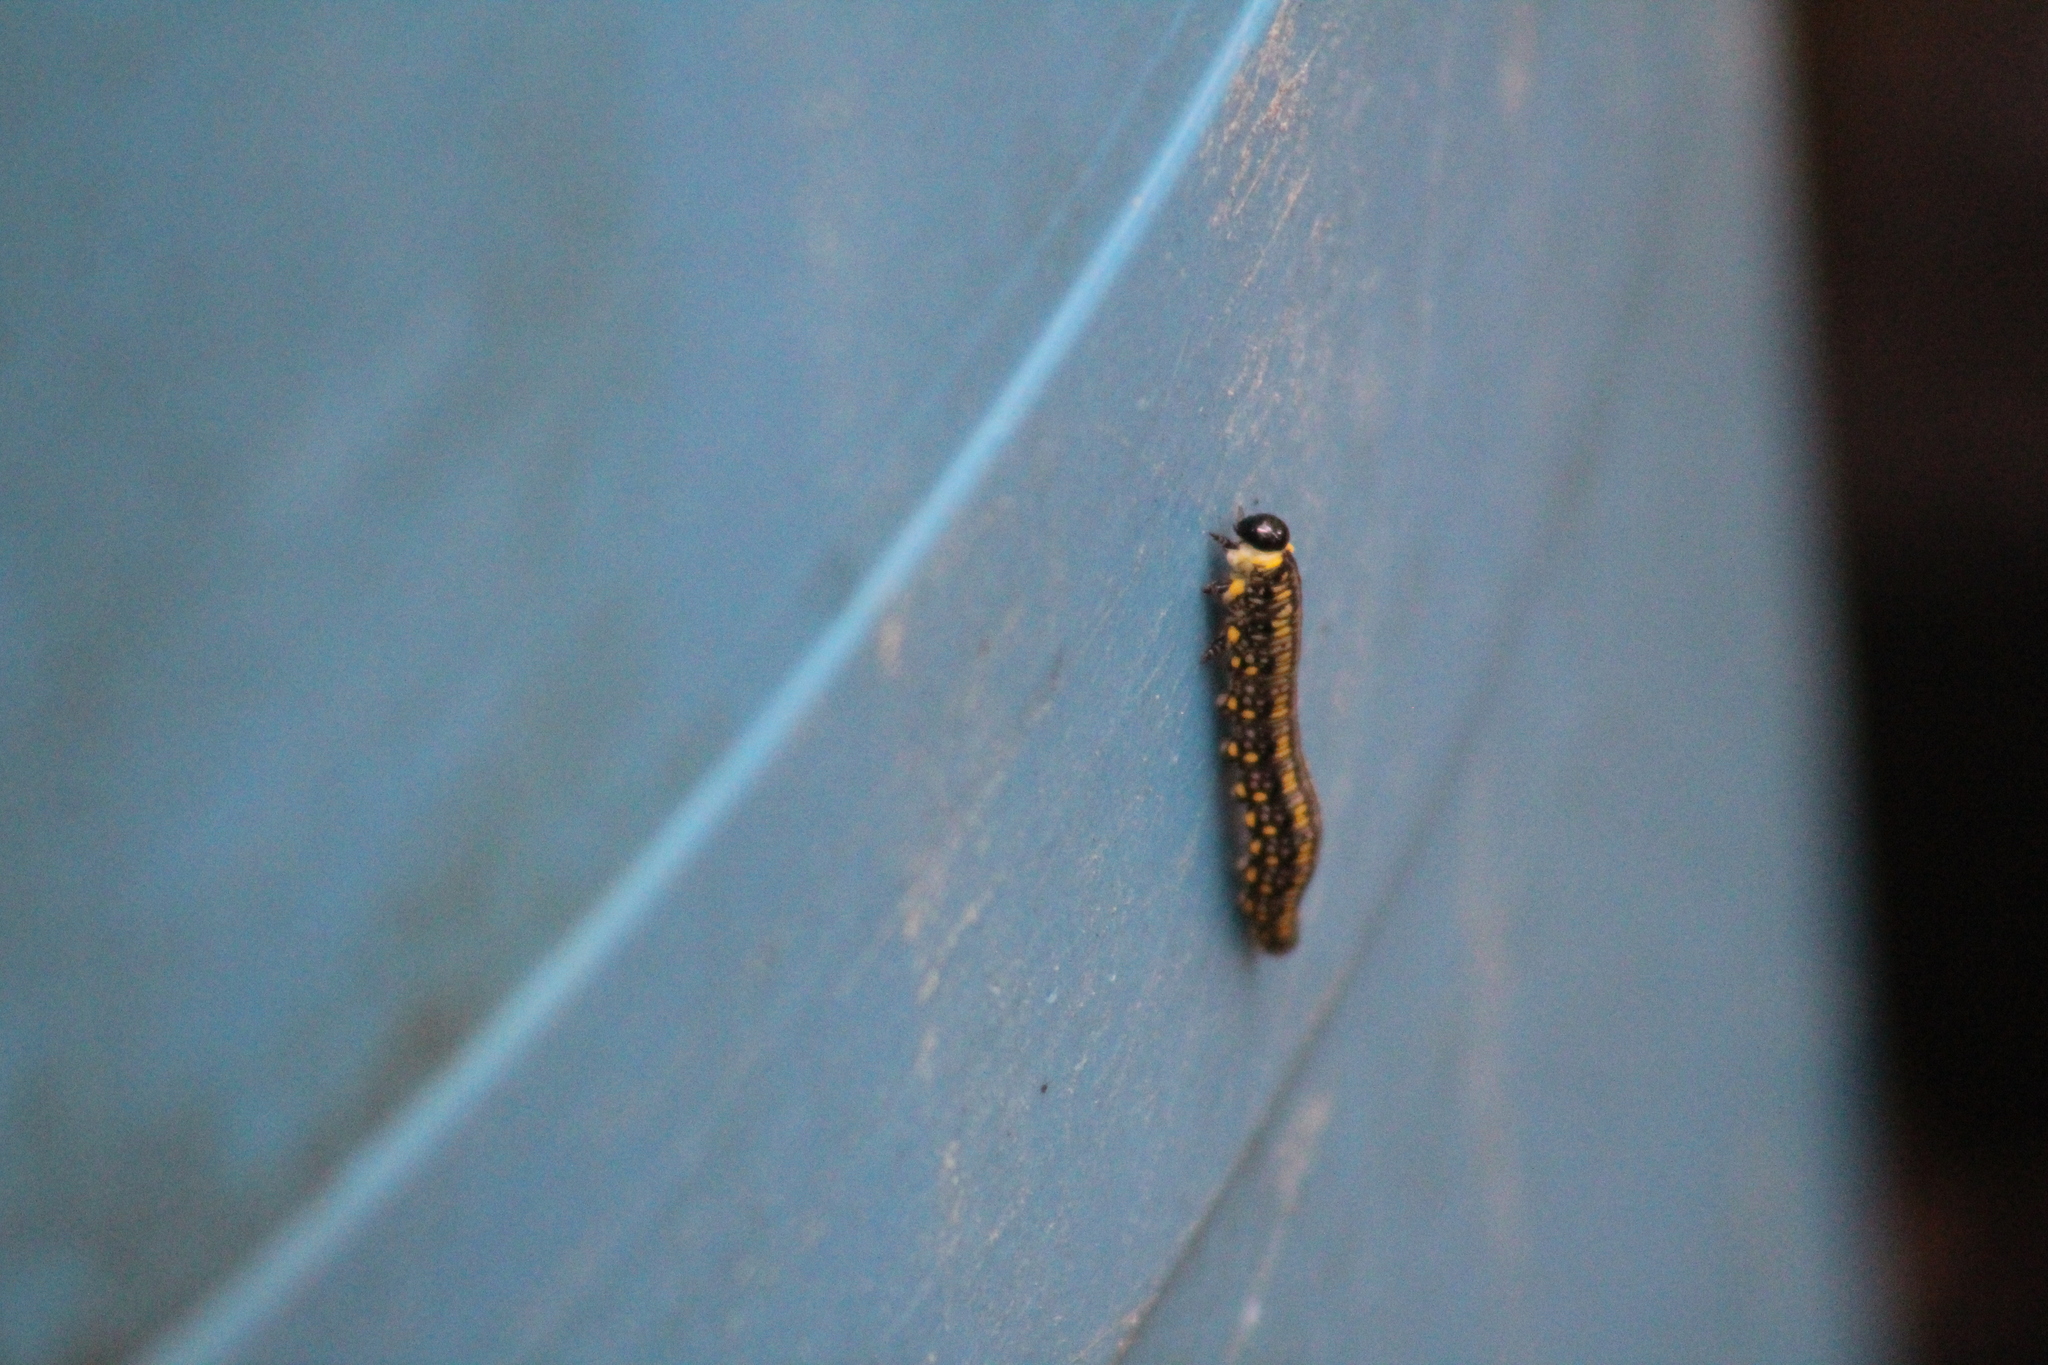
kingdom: Animalia
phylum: Arthropoda
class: Insecta
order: Hymenoptera
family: Diprionidae
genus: Diprion
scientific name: Diprion similis
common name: Pine sawfly
